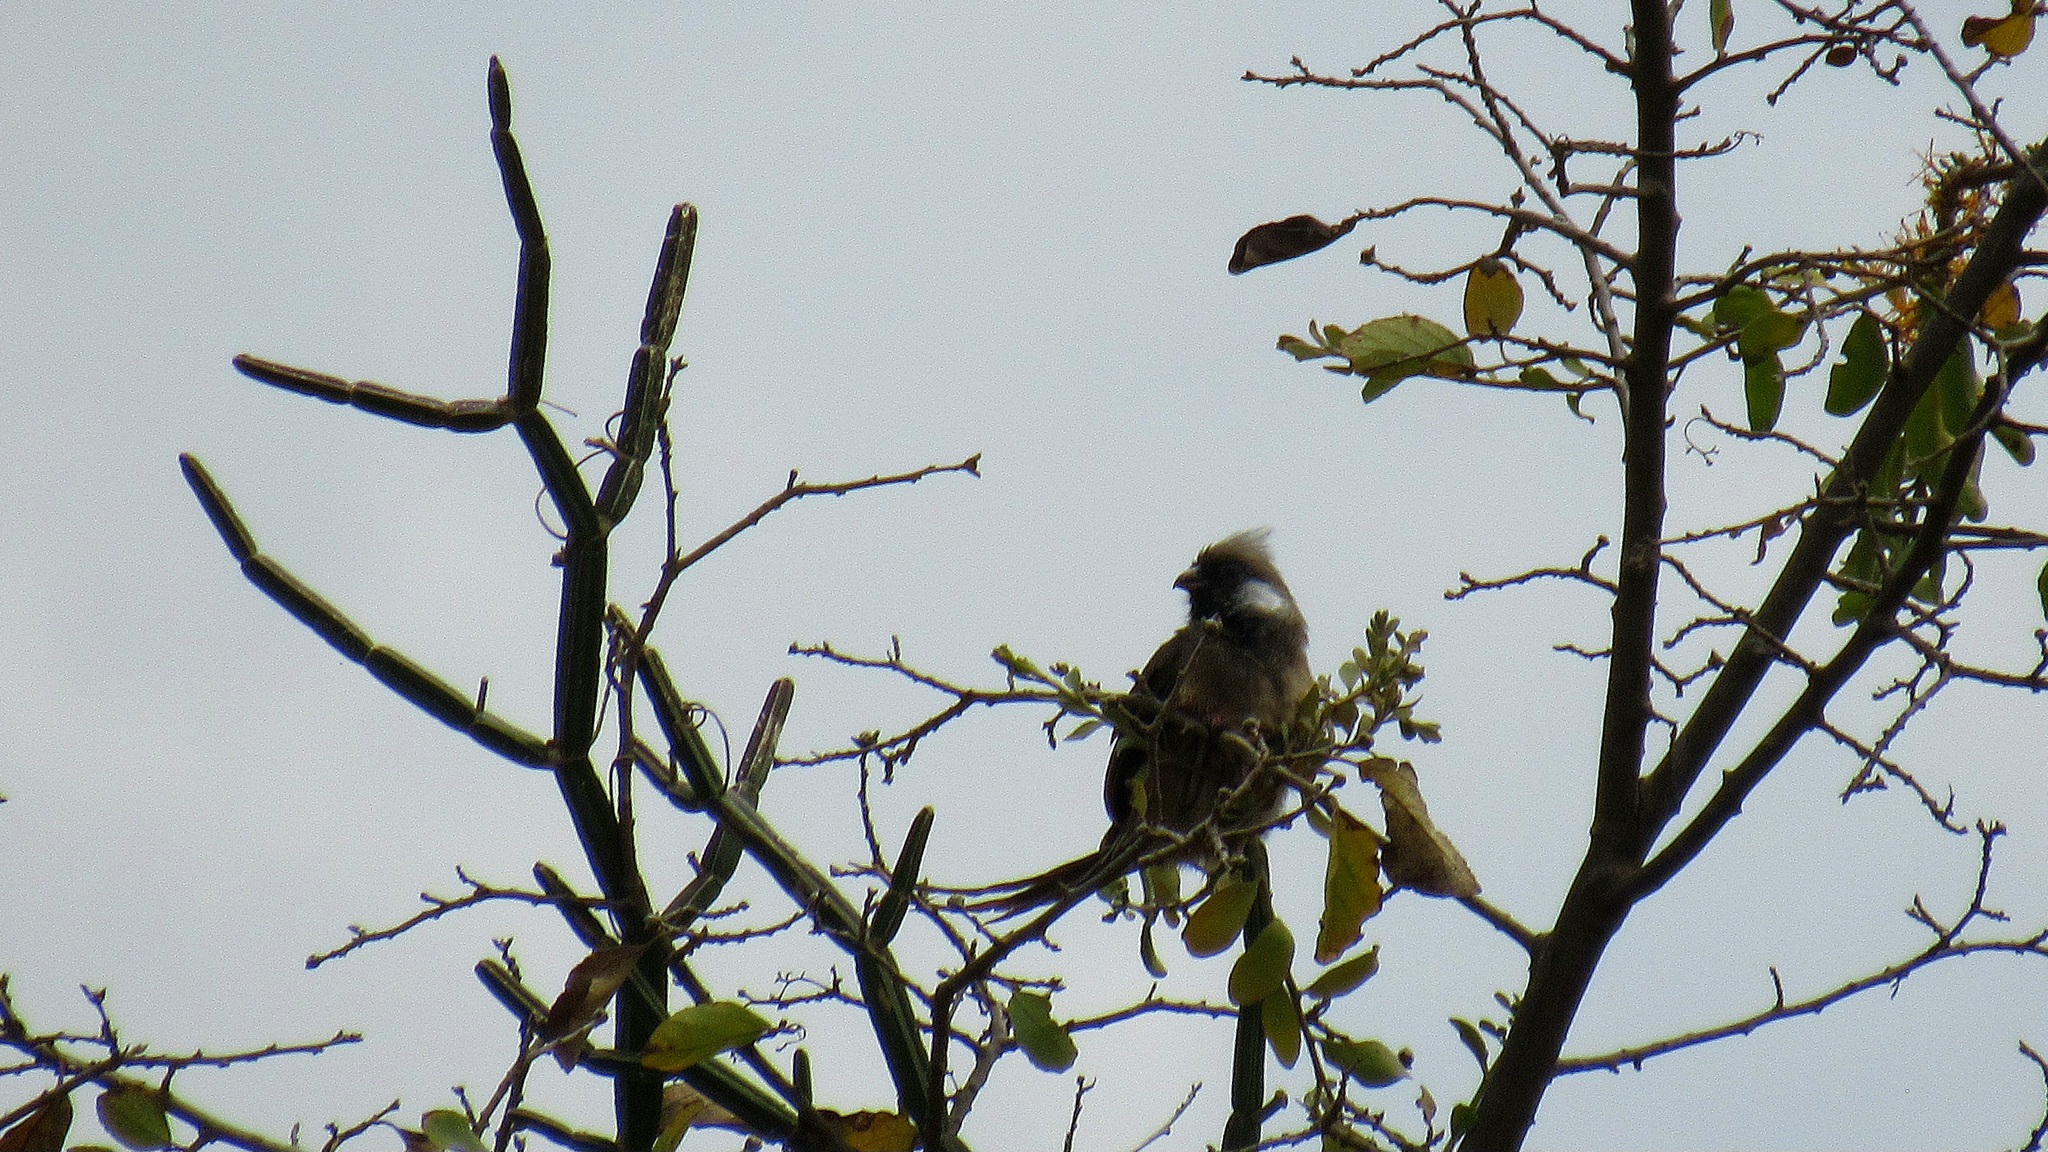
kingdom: Animalia
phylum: Chordata
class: Aves
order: Coliiformes
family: Coliidae
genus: Colius
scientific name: Colius striatus
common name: Speckled mousebird
